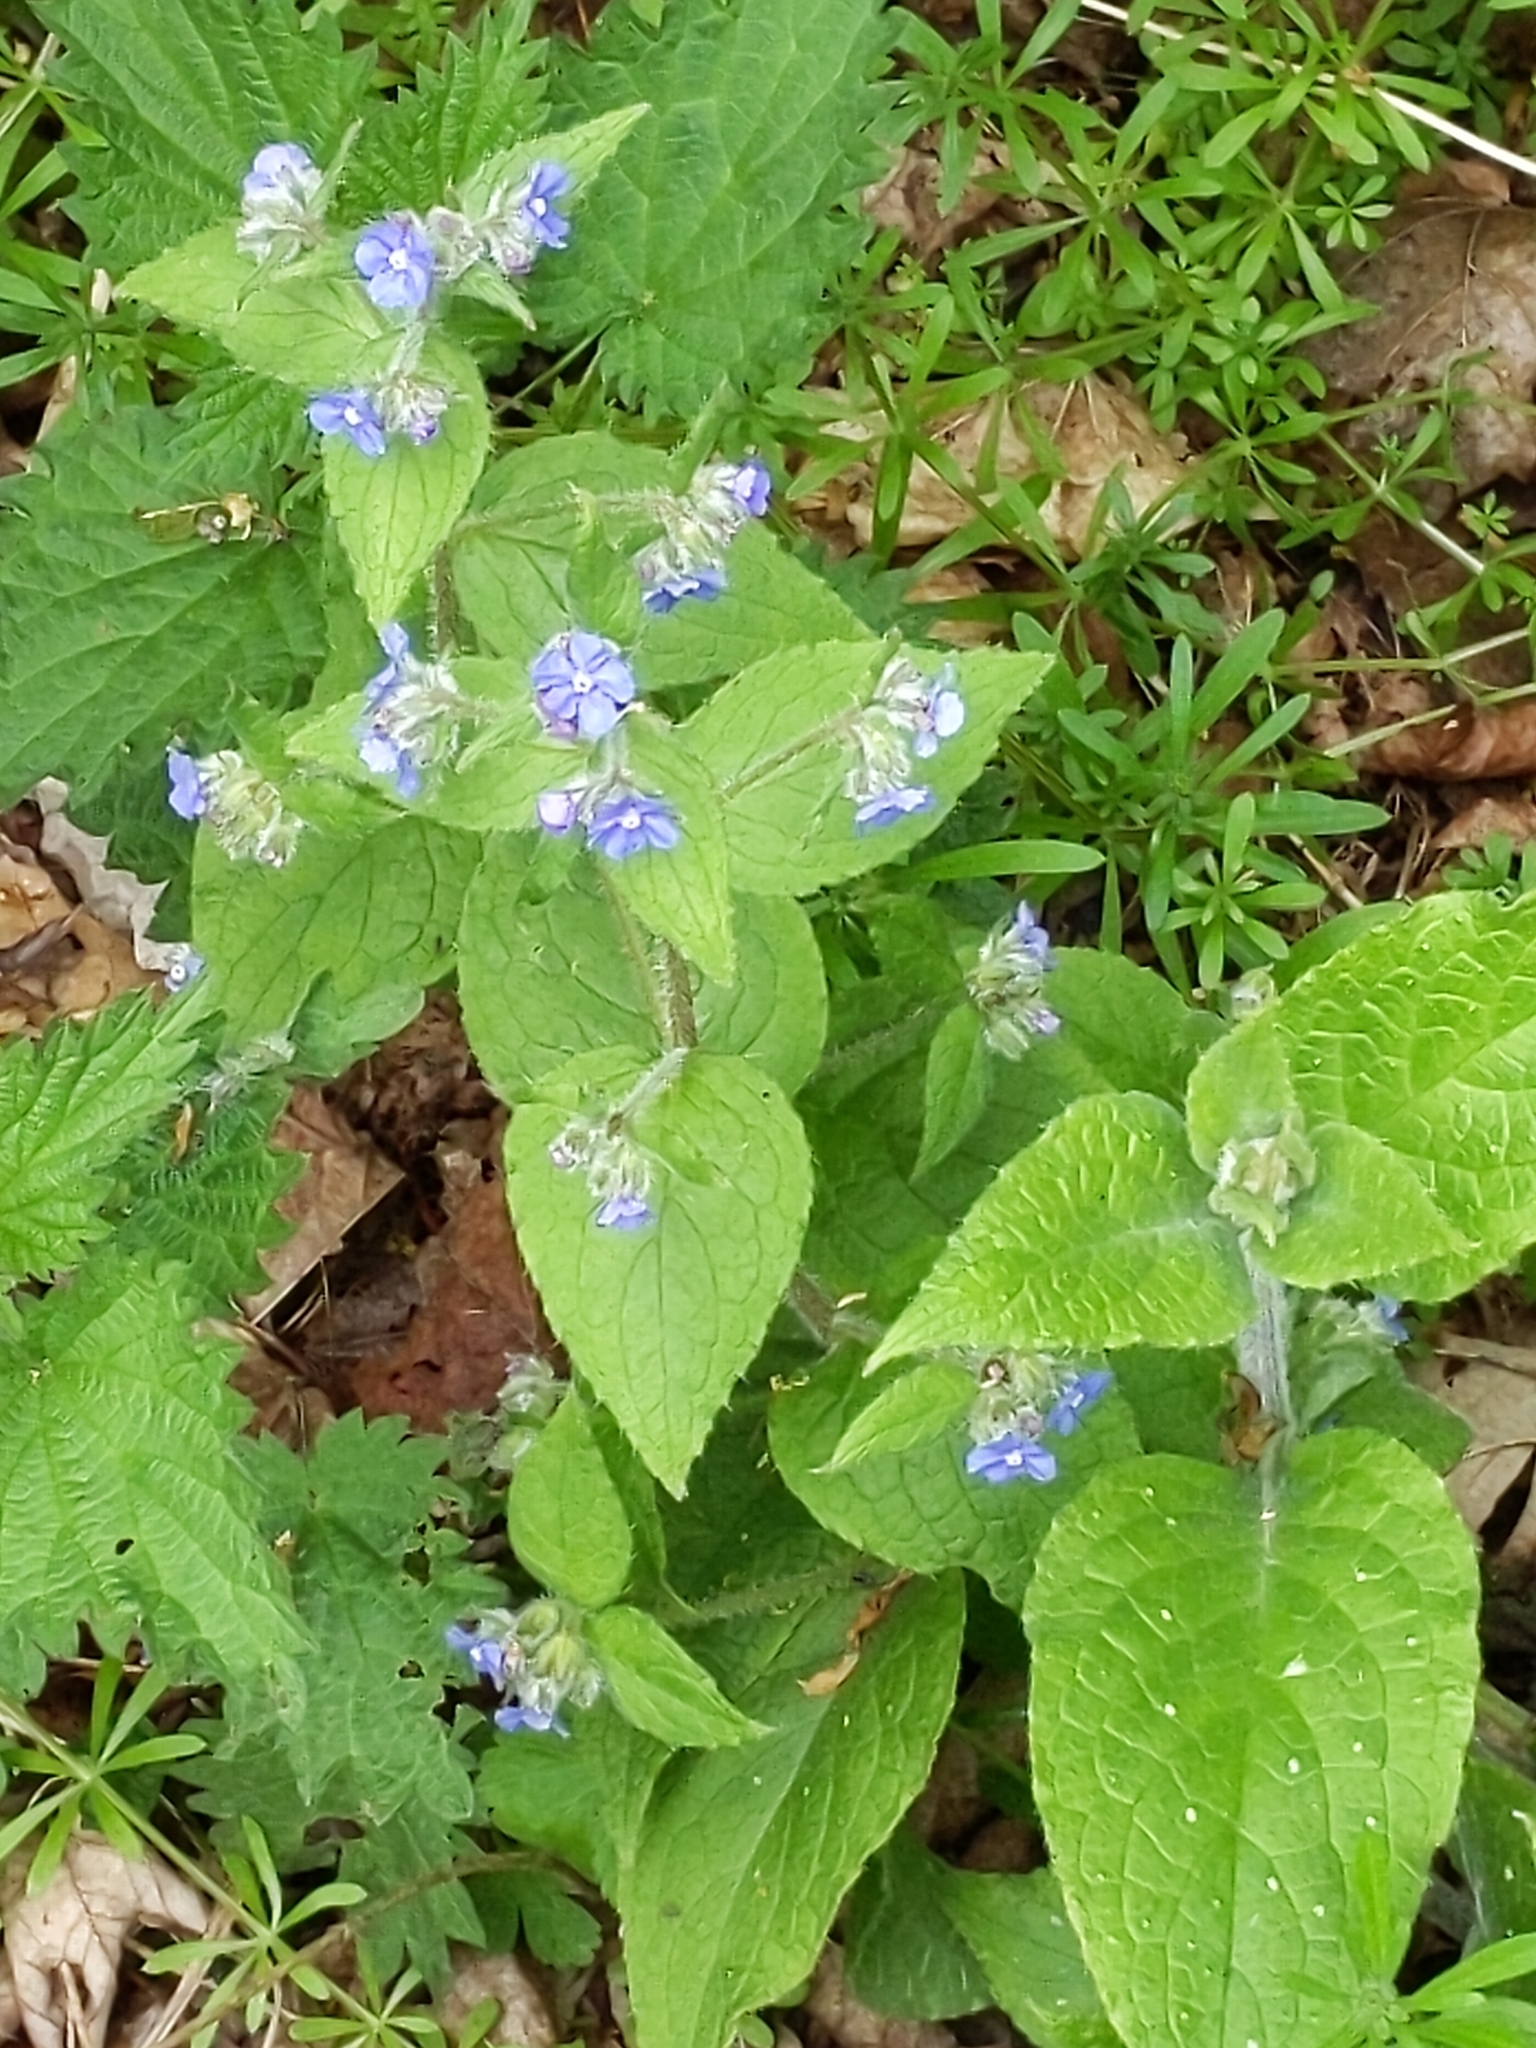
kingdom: Plantae
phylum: Tracheophyta
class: Magnoliopsida
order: Boraginales
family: Boraginaceae
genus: Pentaglottis
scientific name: Pentaglottis sempervirens
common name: Green alkanet
